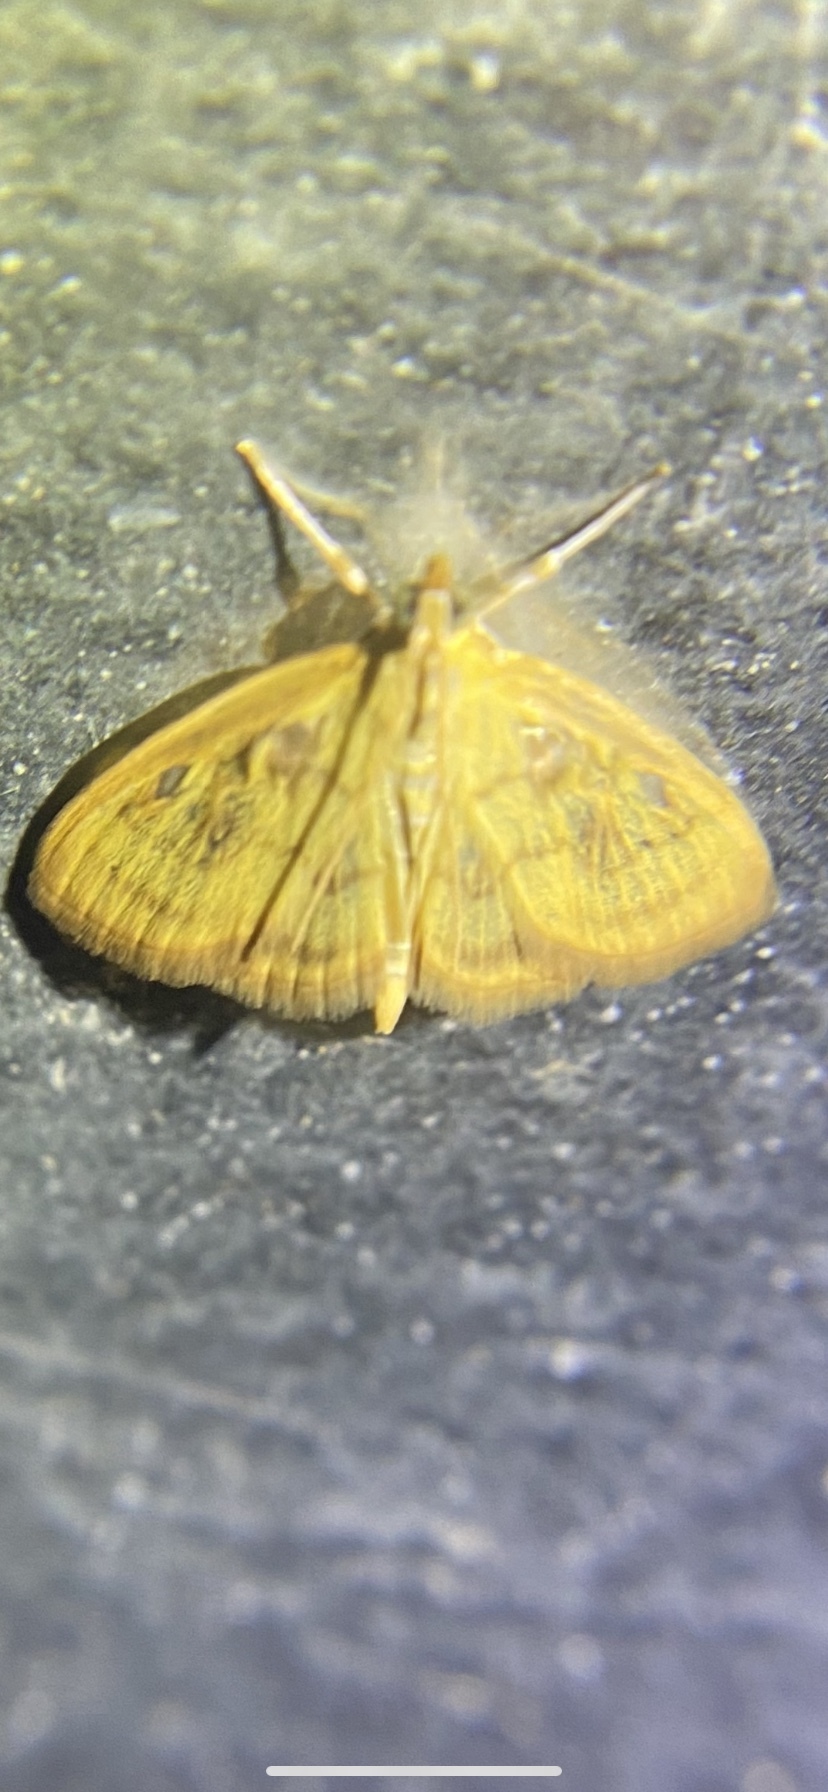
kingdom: Animalia
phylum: Arthropoda
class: Insecta
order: Lepidoptera
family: Crambidae
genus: Crocidophora
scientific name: Crocidophora tuberculalis
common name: Pale-winged crocidiphora moth
